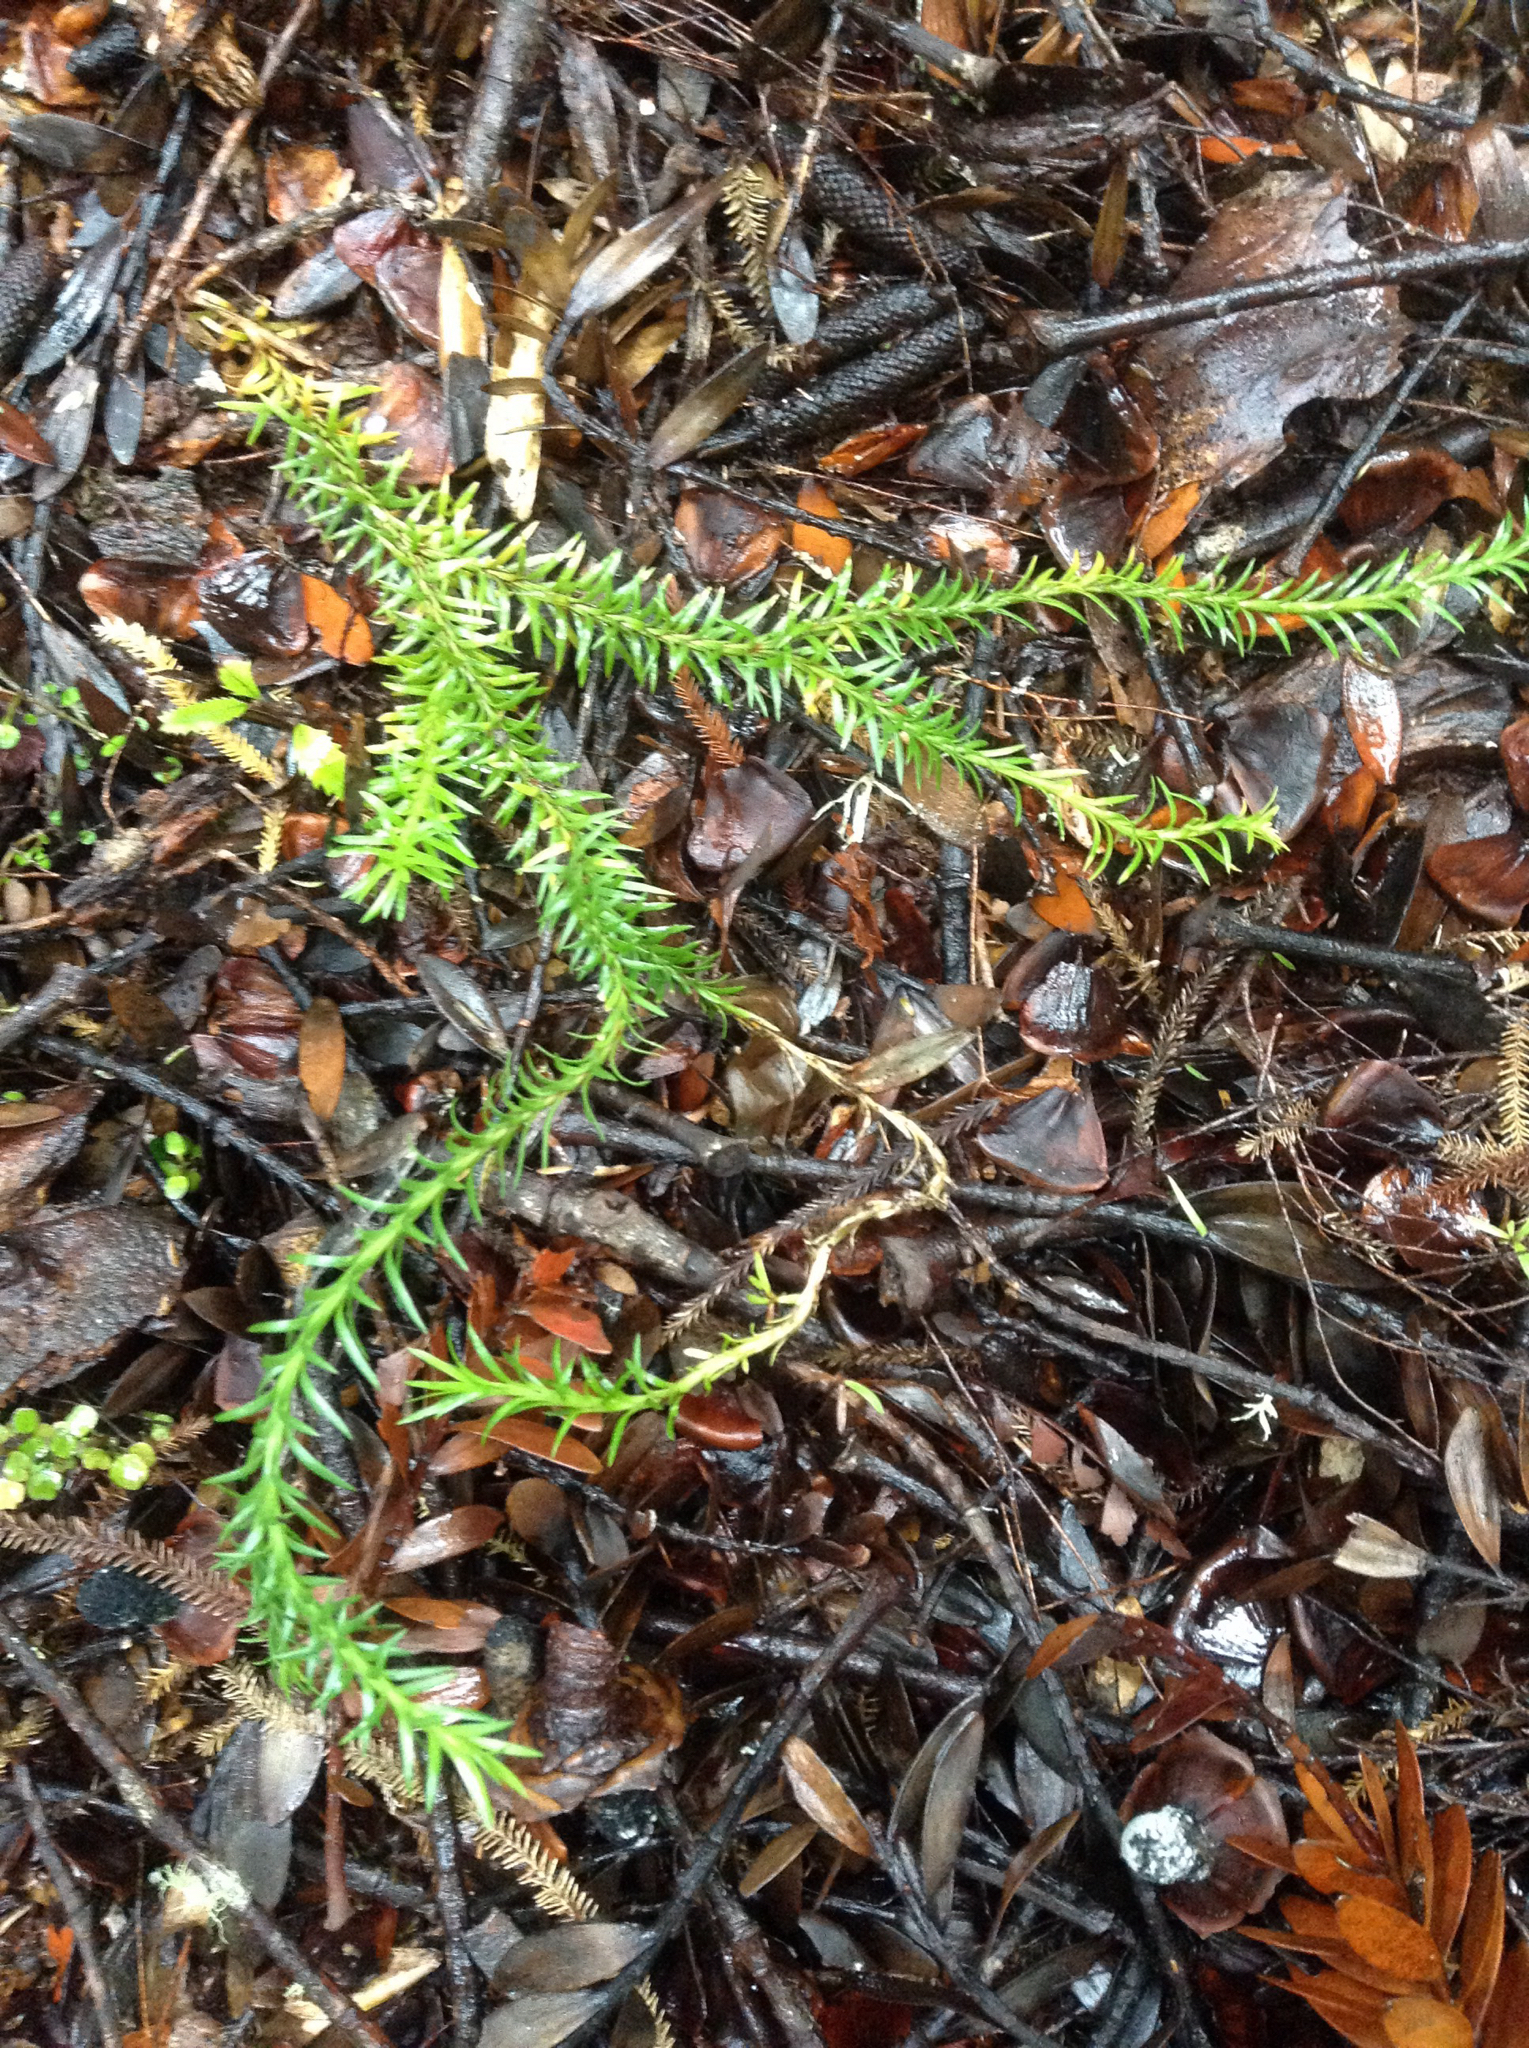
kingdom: Plantae
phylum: Tracheophyta
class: Lycopodiopsida
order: Lycopodiales
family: Lycopodiaceae
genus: Phlegmariurus
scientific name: Phlegmariurus varius
